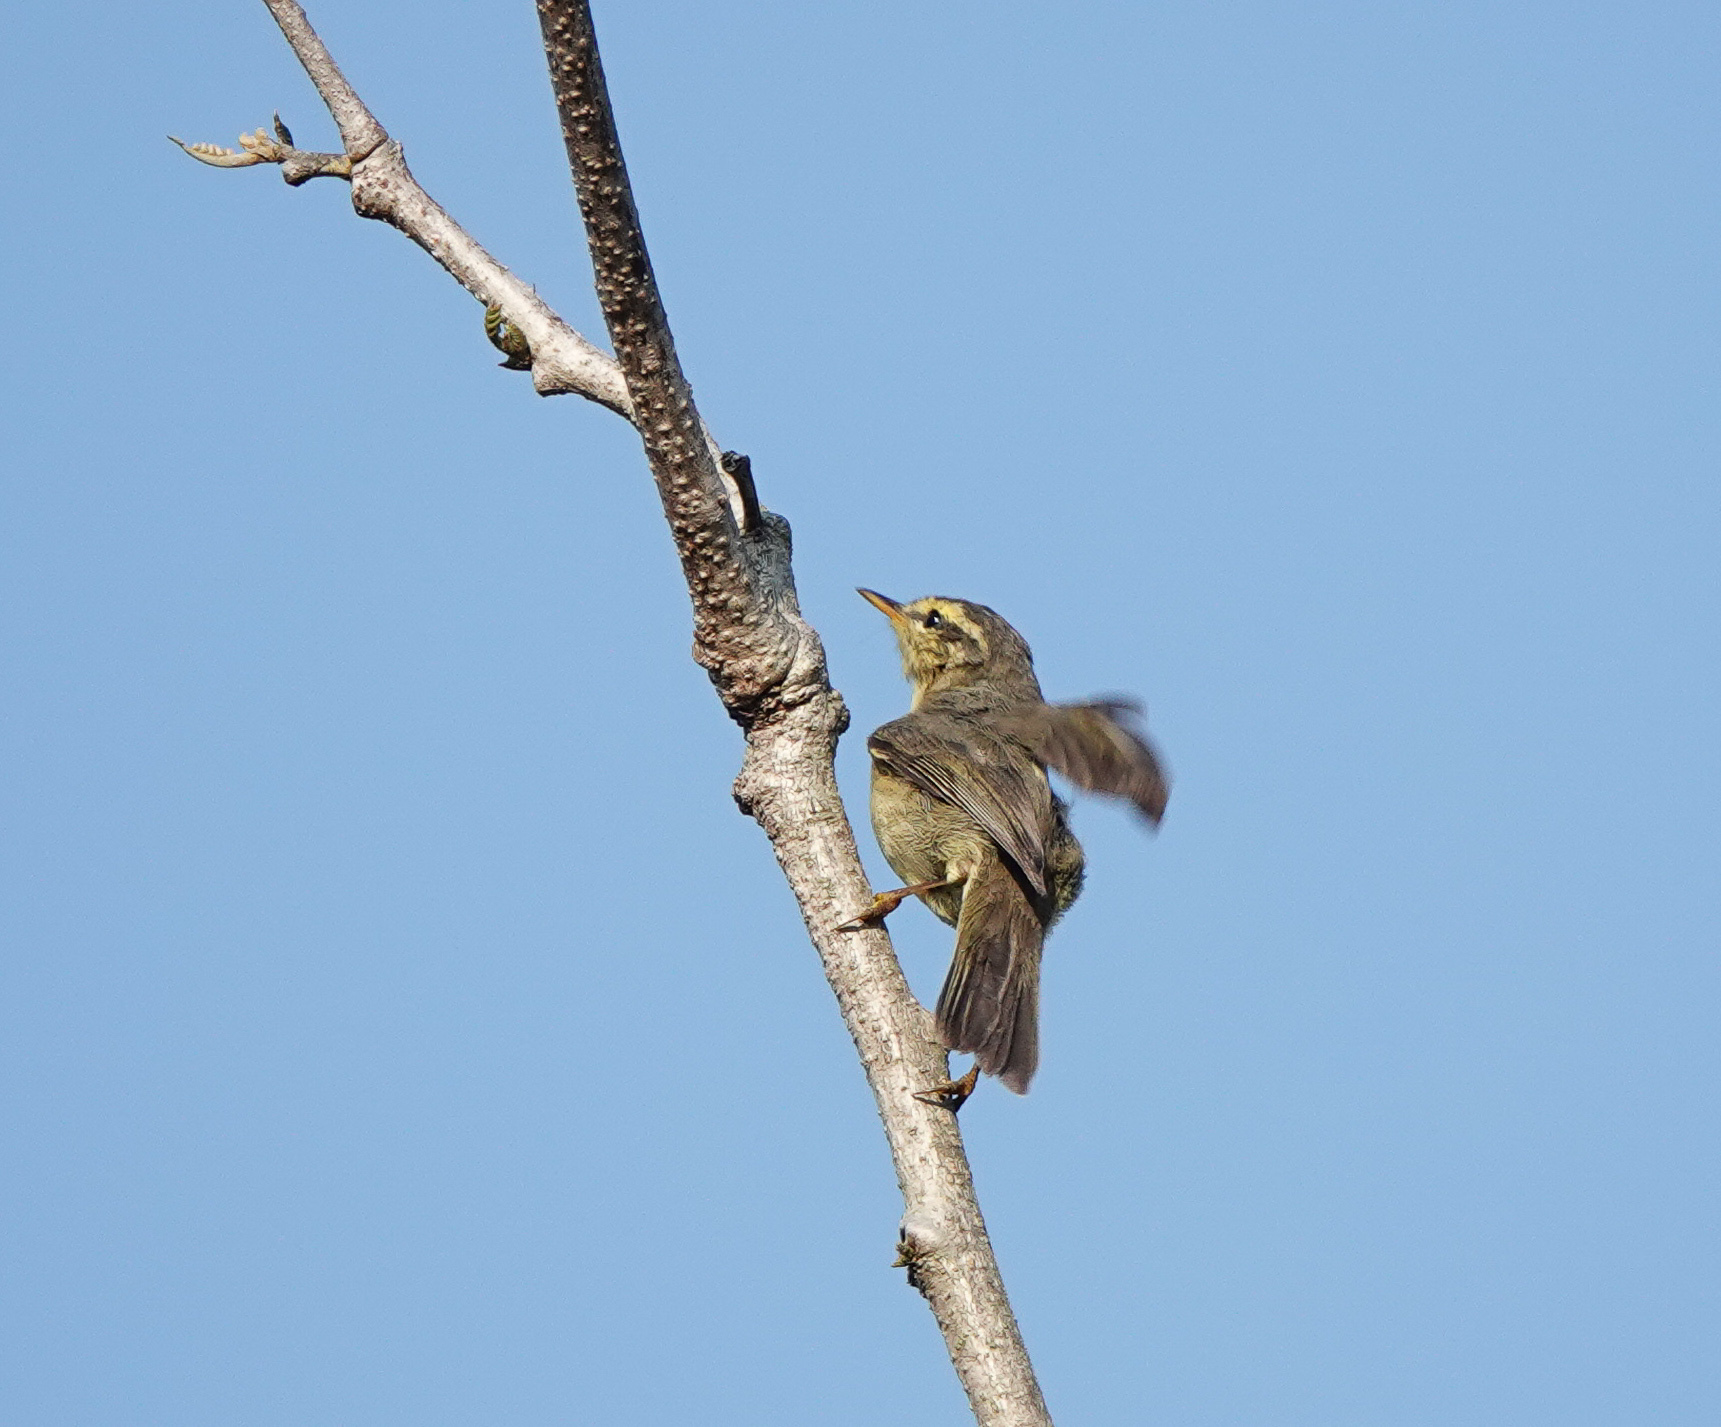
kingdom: Animalia
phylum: Chordata
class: Aves
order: Passeriformes
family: Phylloscopidae
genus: Phylloscopus
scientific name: Phylloscopus affinis
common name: Tickell's leaf warbler
